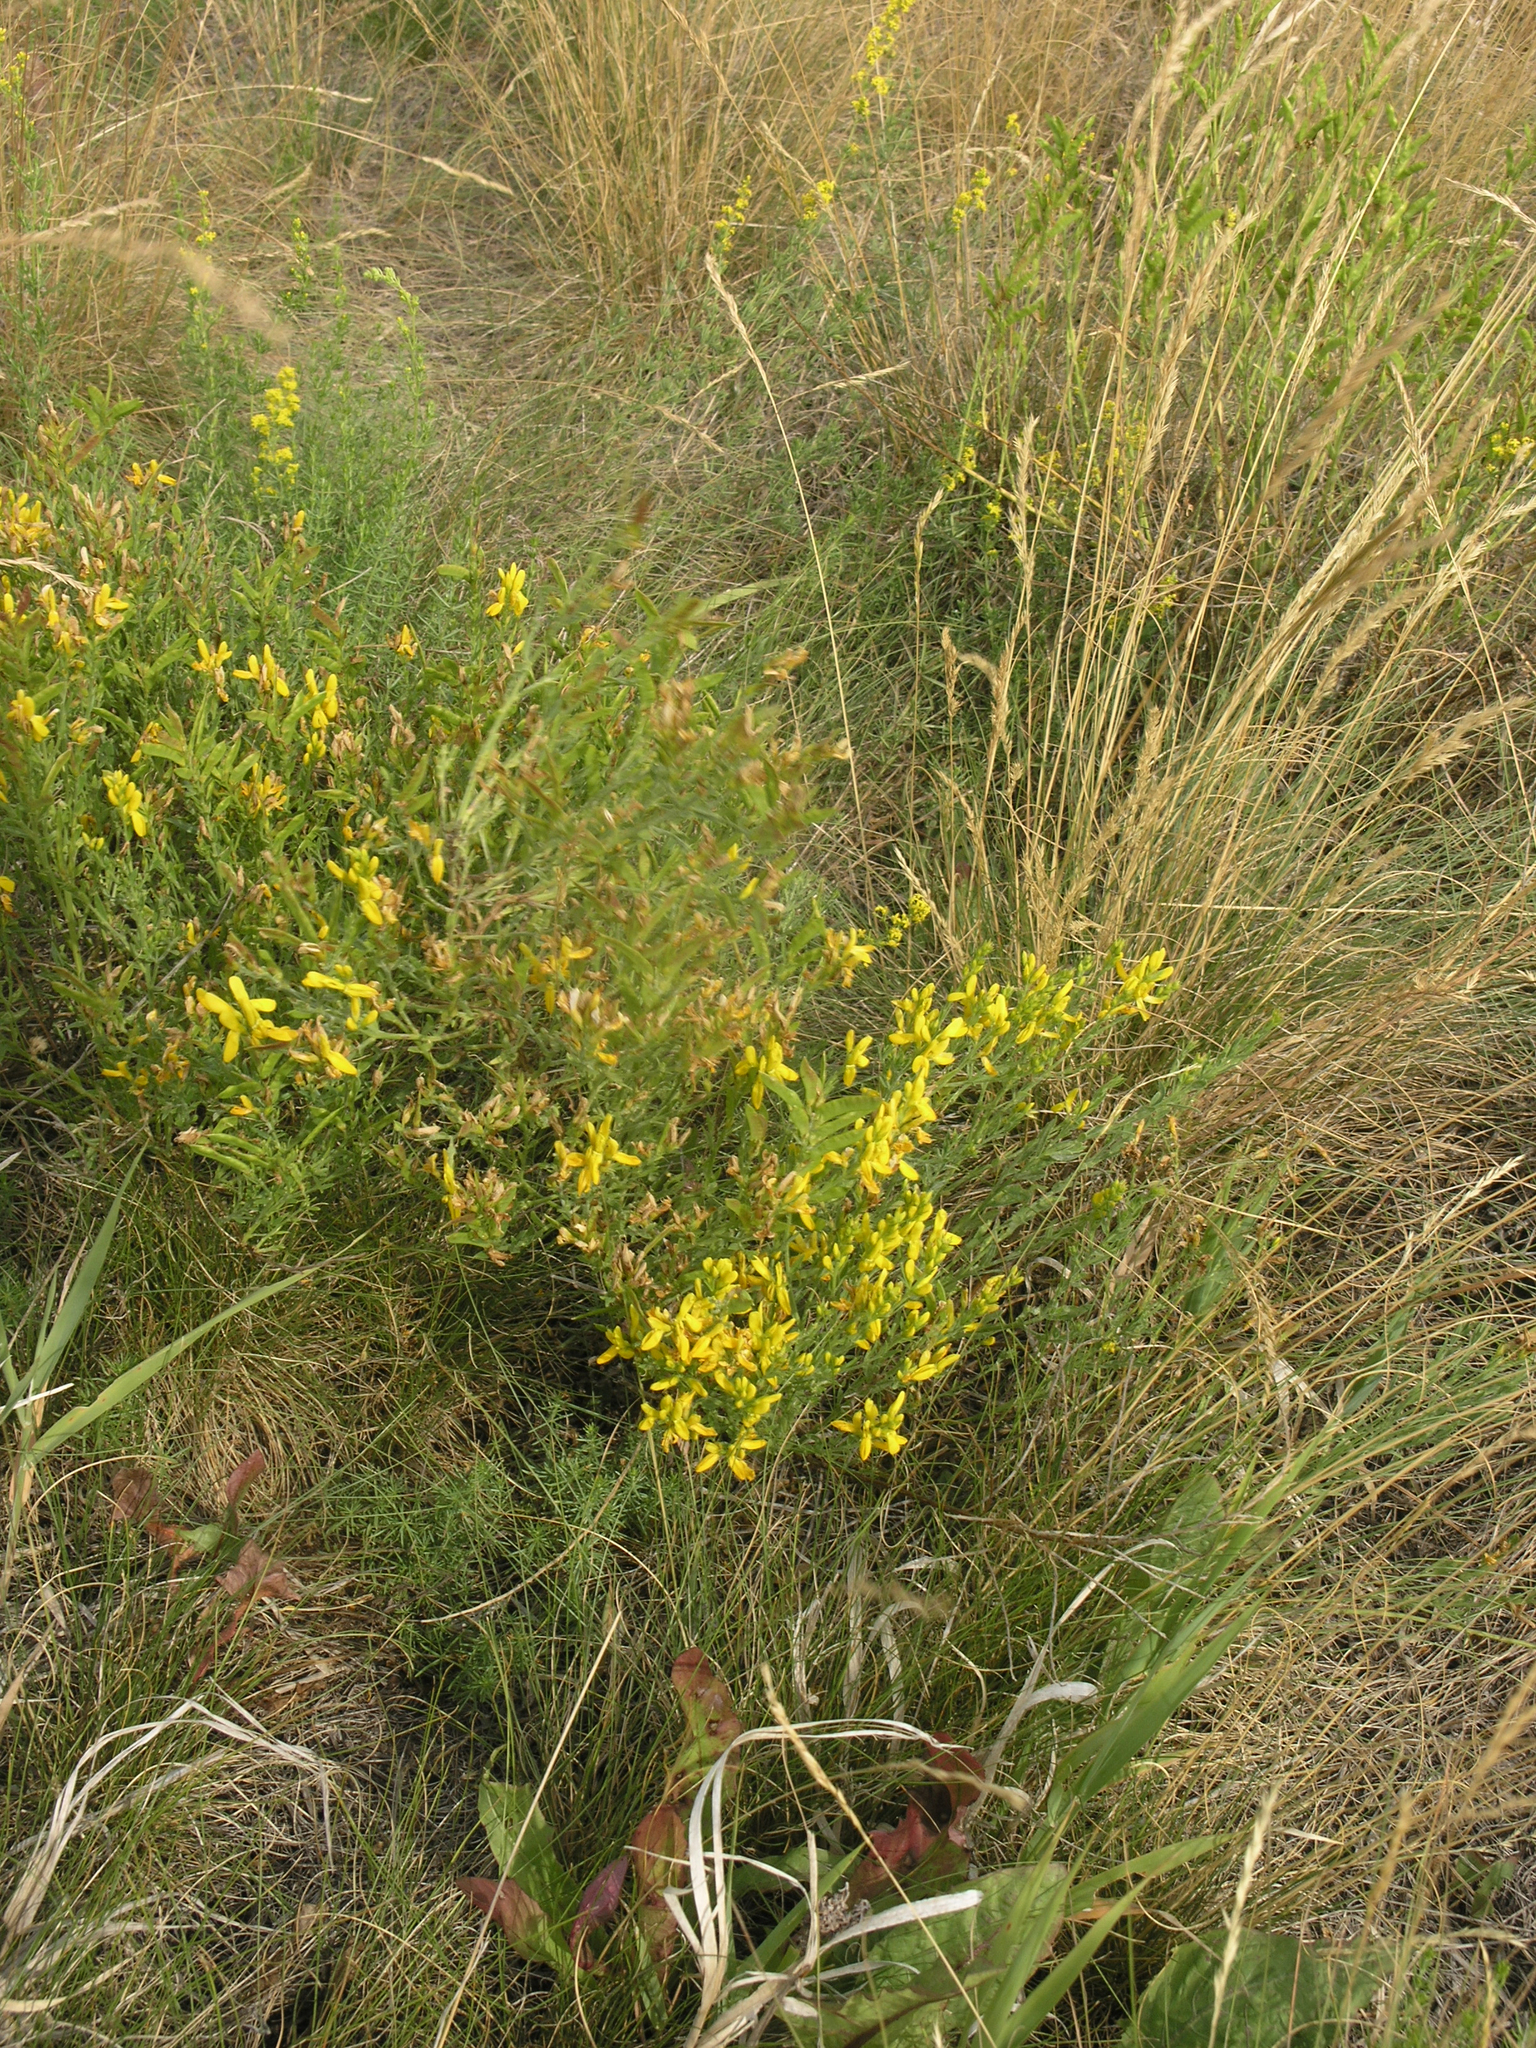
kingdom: Plantae
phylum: Tracheophyta
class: Magnoliopsida
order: Fabales
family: Fabaceae
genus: Genista
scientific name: Genista tinctoria
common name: Dyer's greenweed
